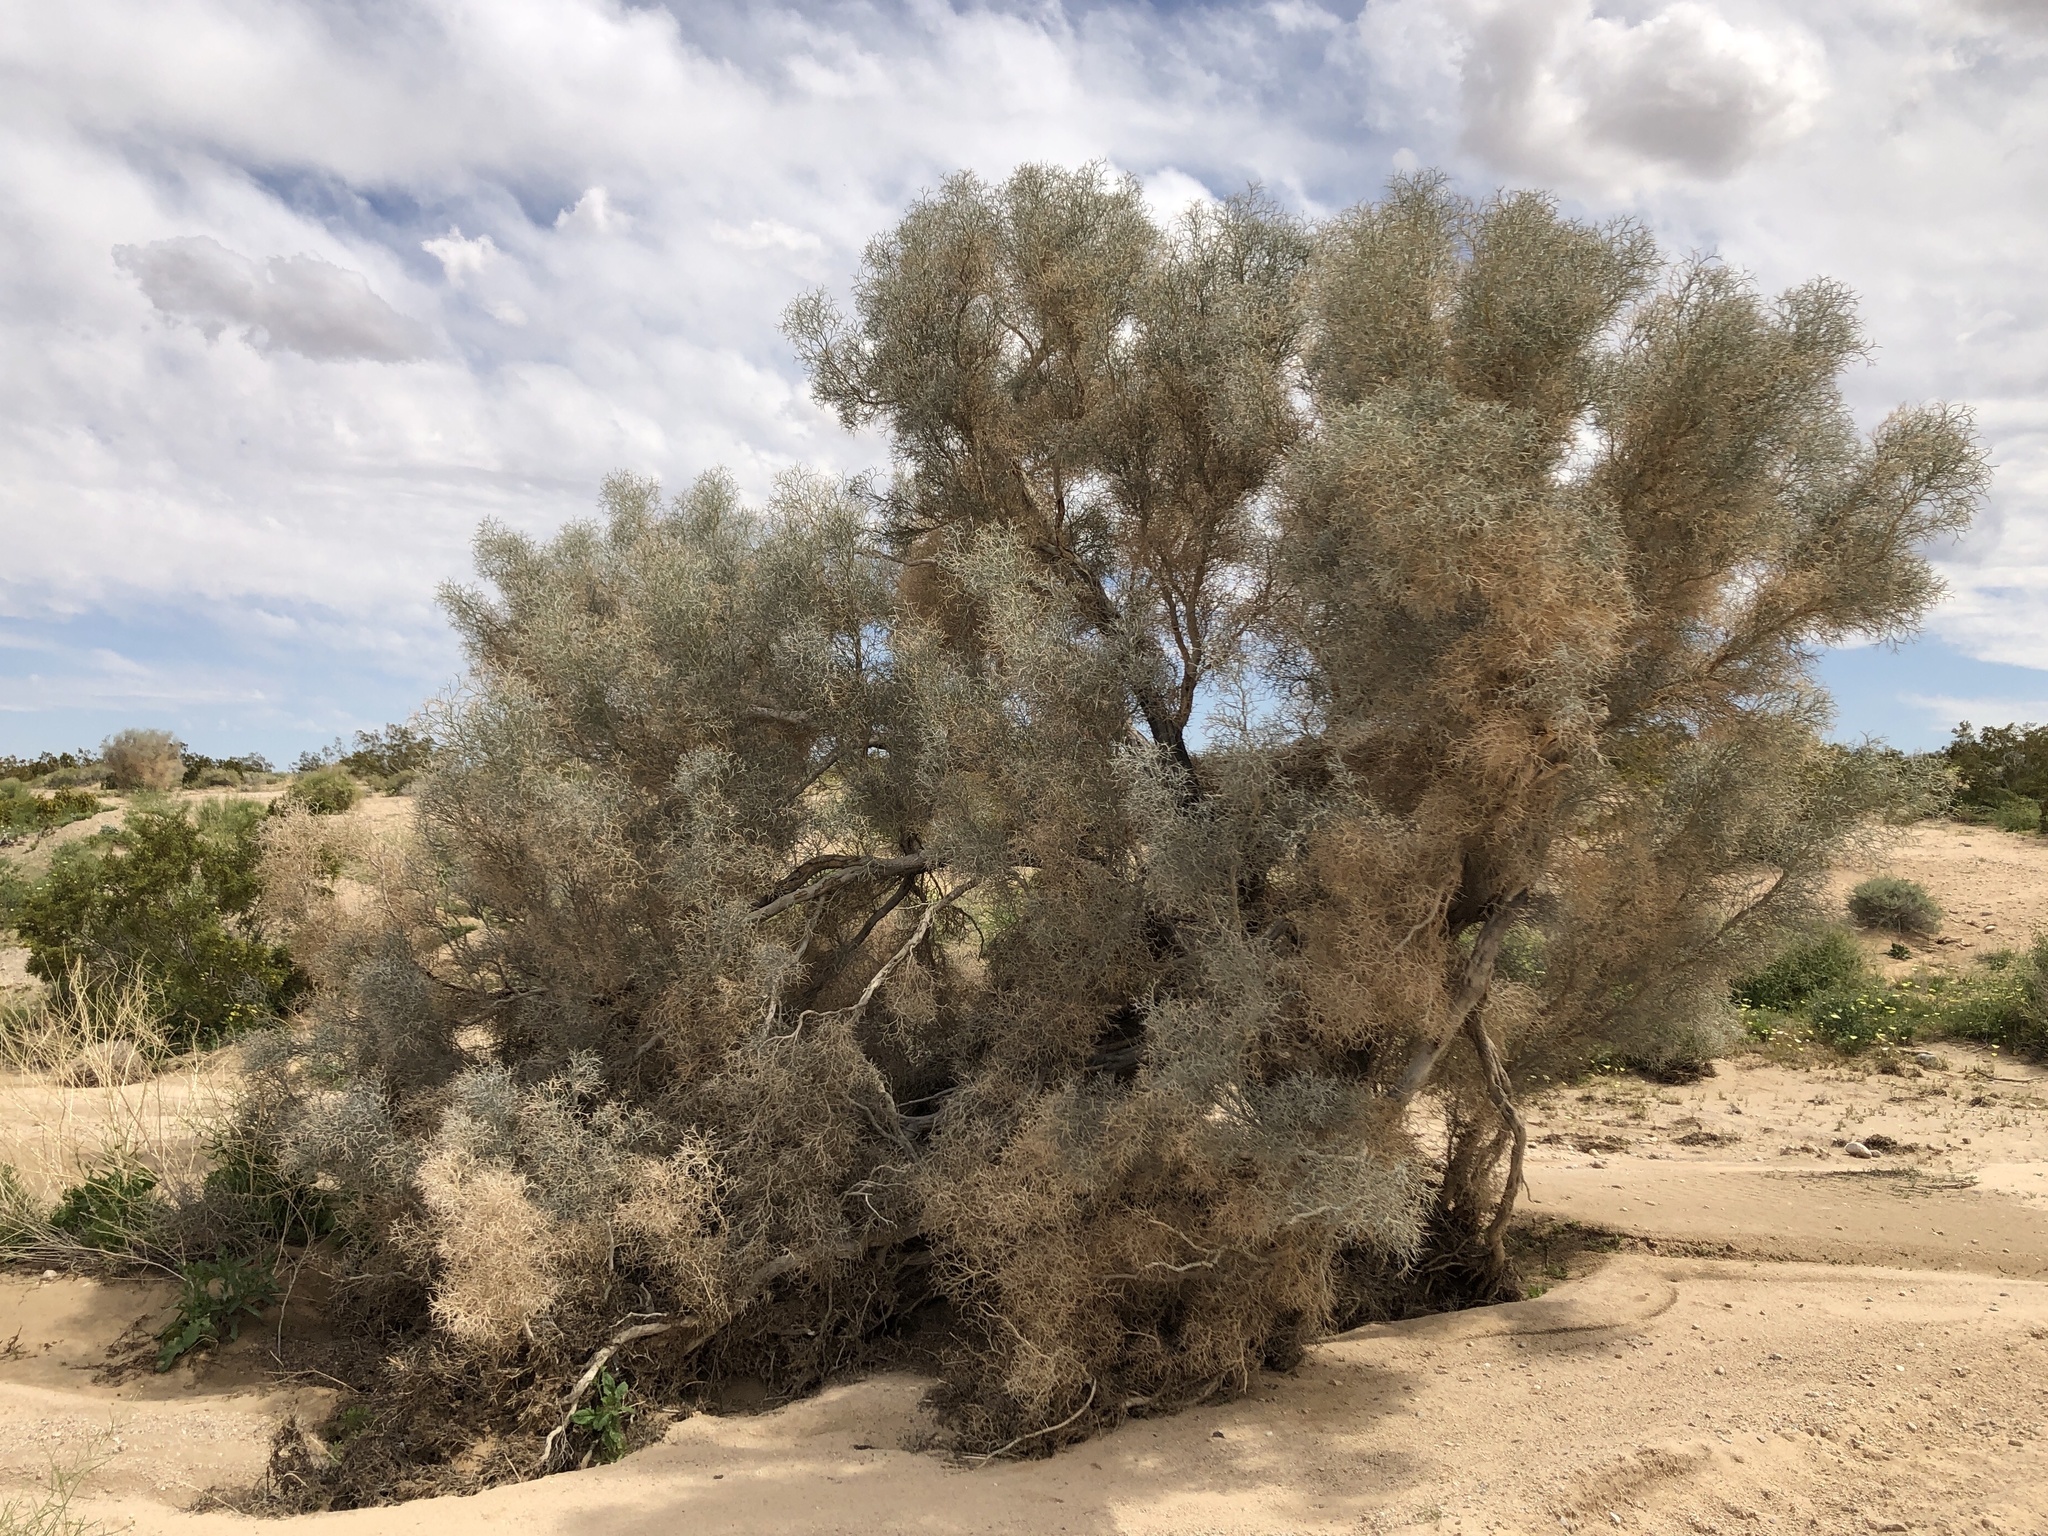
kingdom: Plantae
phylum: Tracheophyta
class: Magnoliopsida
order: Fabales
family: Fabaceae
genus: Psorothamnus
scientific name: Psorothamnus spinosus
